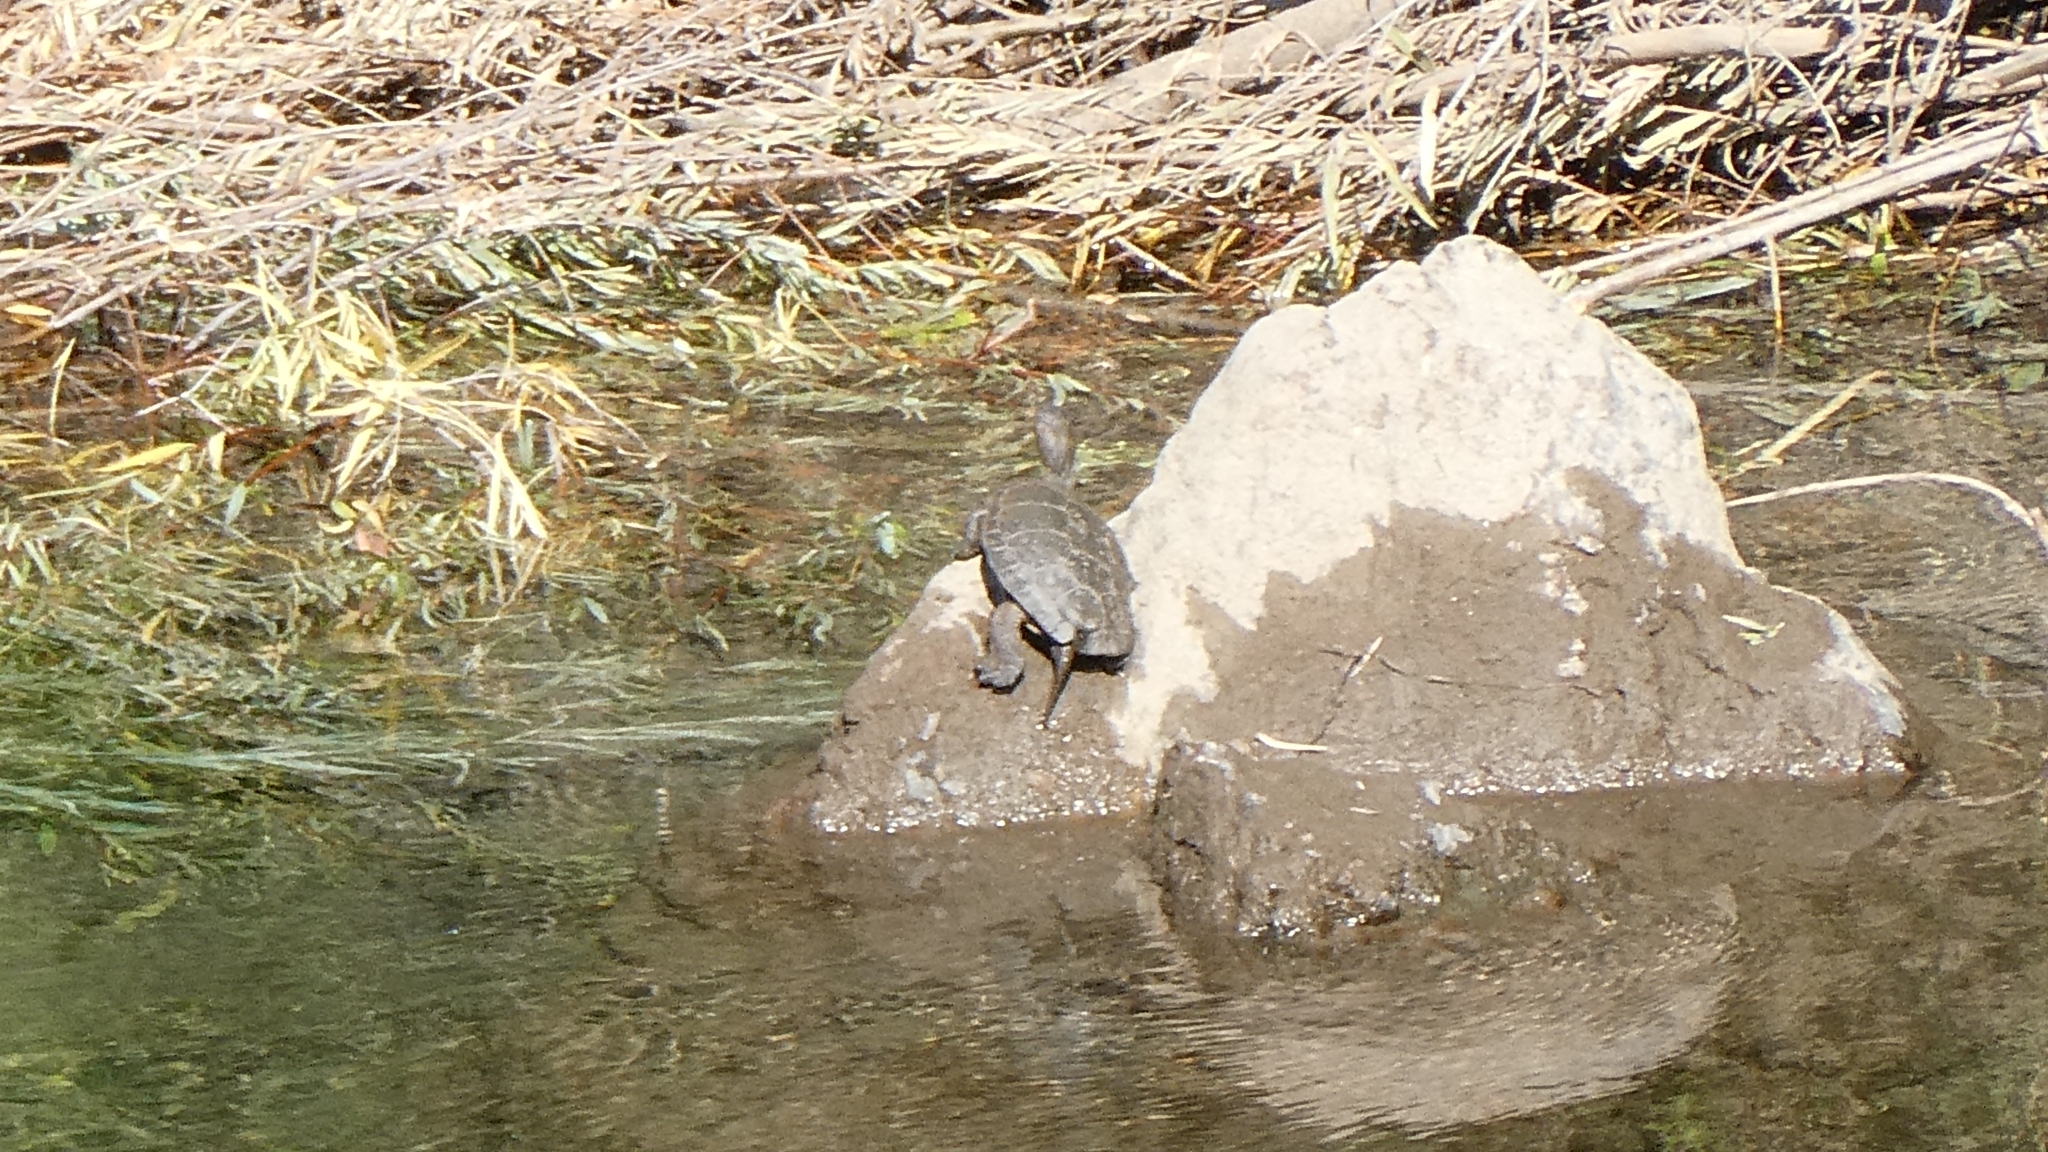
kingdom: Animalia
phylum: Chordata
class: Testudines
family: Emydidae
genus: Actinemys
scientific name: Actinemys marmorata
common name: Western pond turtle
